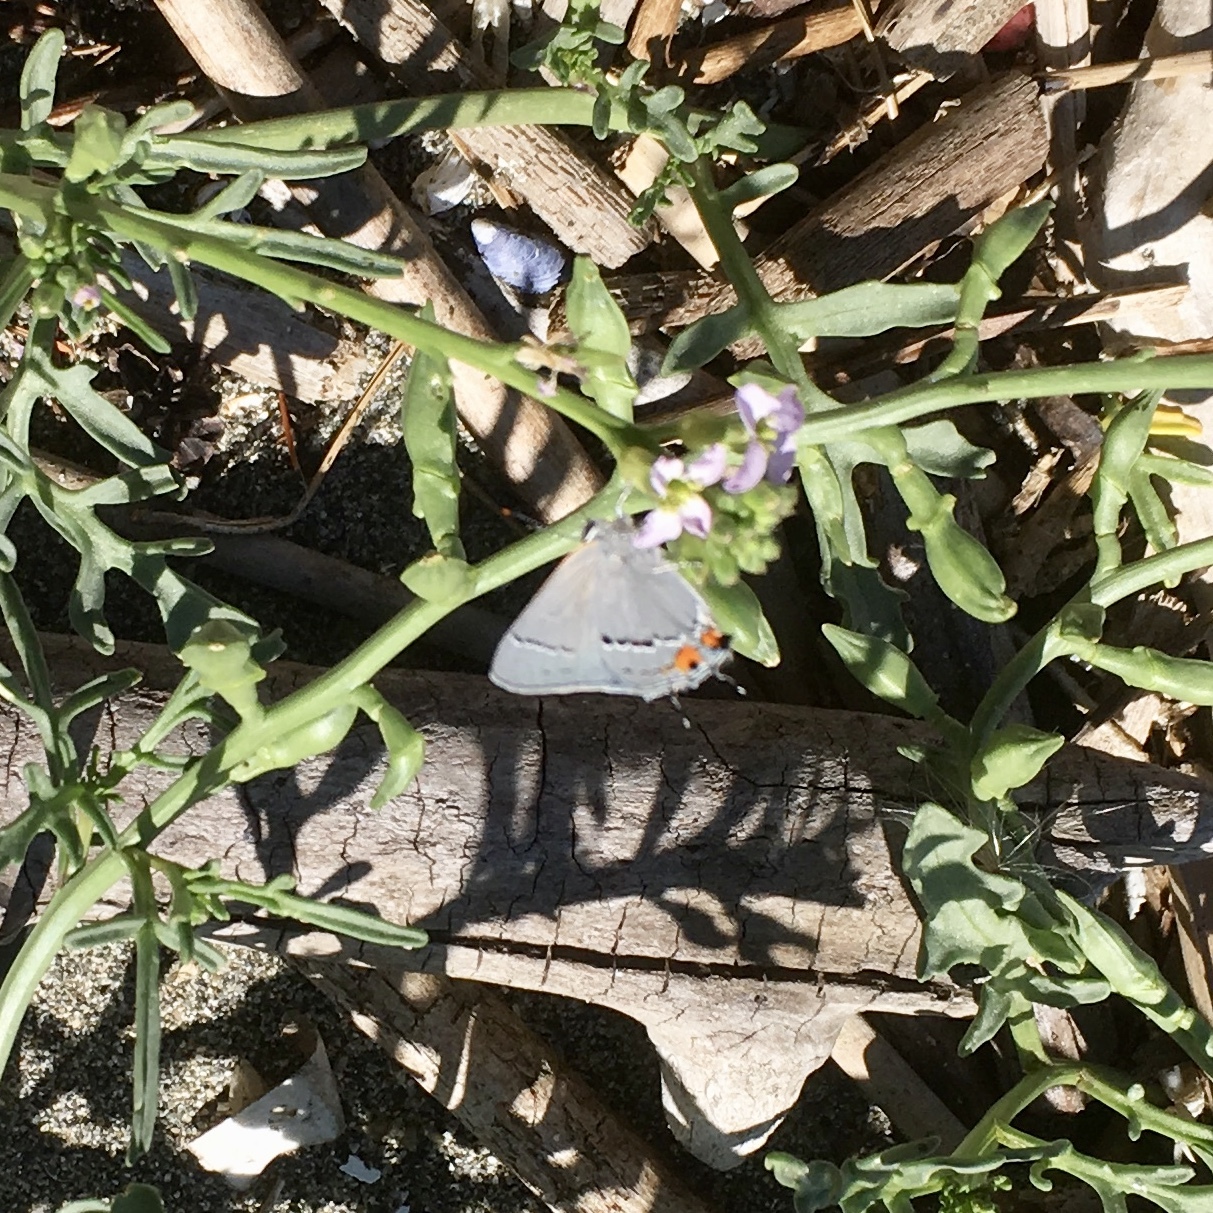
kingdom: Animalia
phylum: Arthropoda
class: Insecta
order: Lepidoptera
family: Lycaenidae
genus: Strymon
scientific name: Strymon melinus
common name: Gray hairstreak
